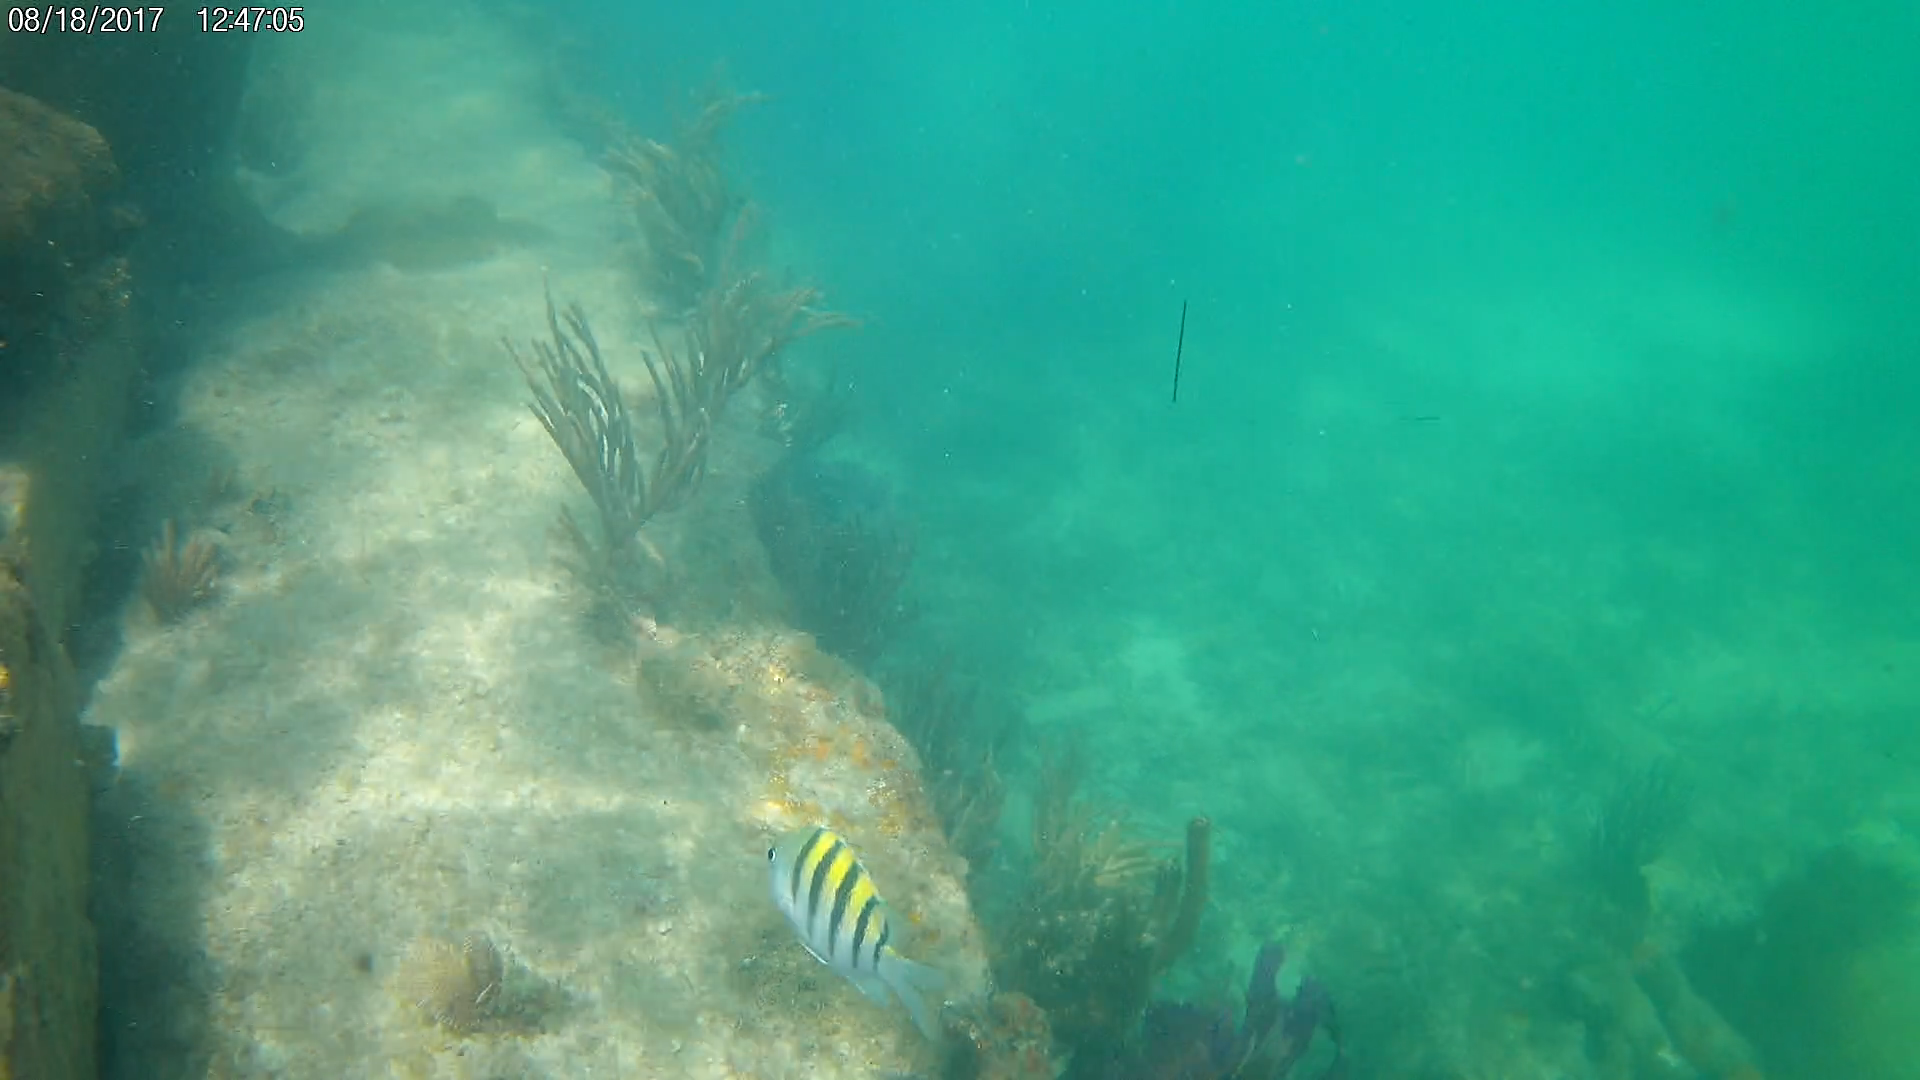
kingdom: Animalia
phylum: Chordata
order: Perciformes
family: Pomacentridae
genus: Abudefduf
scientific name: Abudefduf saxatilis
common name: Sergeant major
